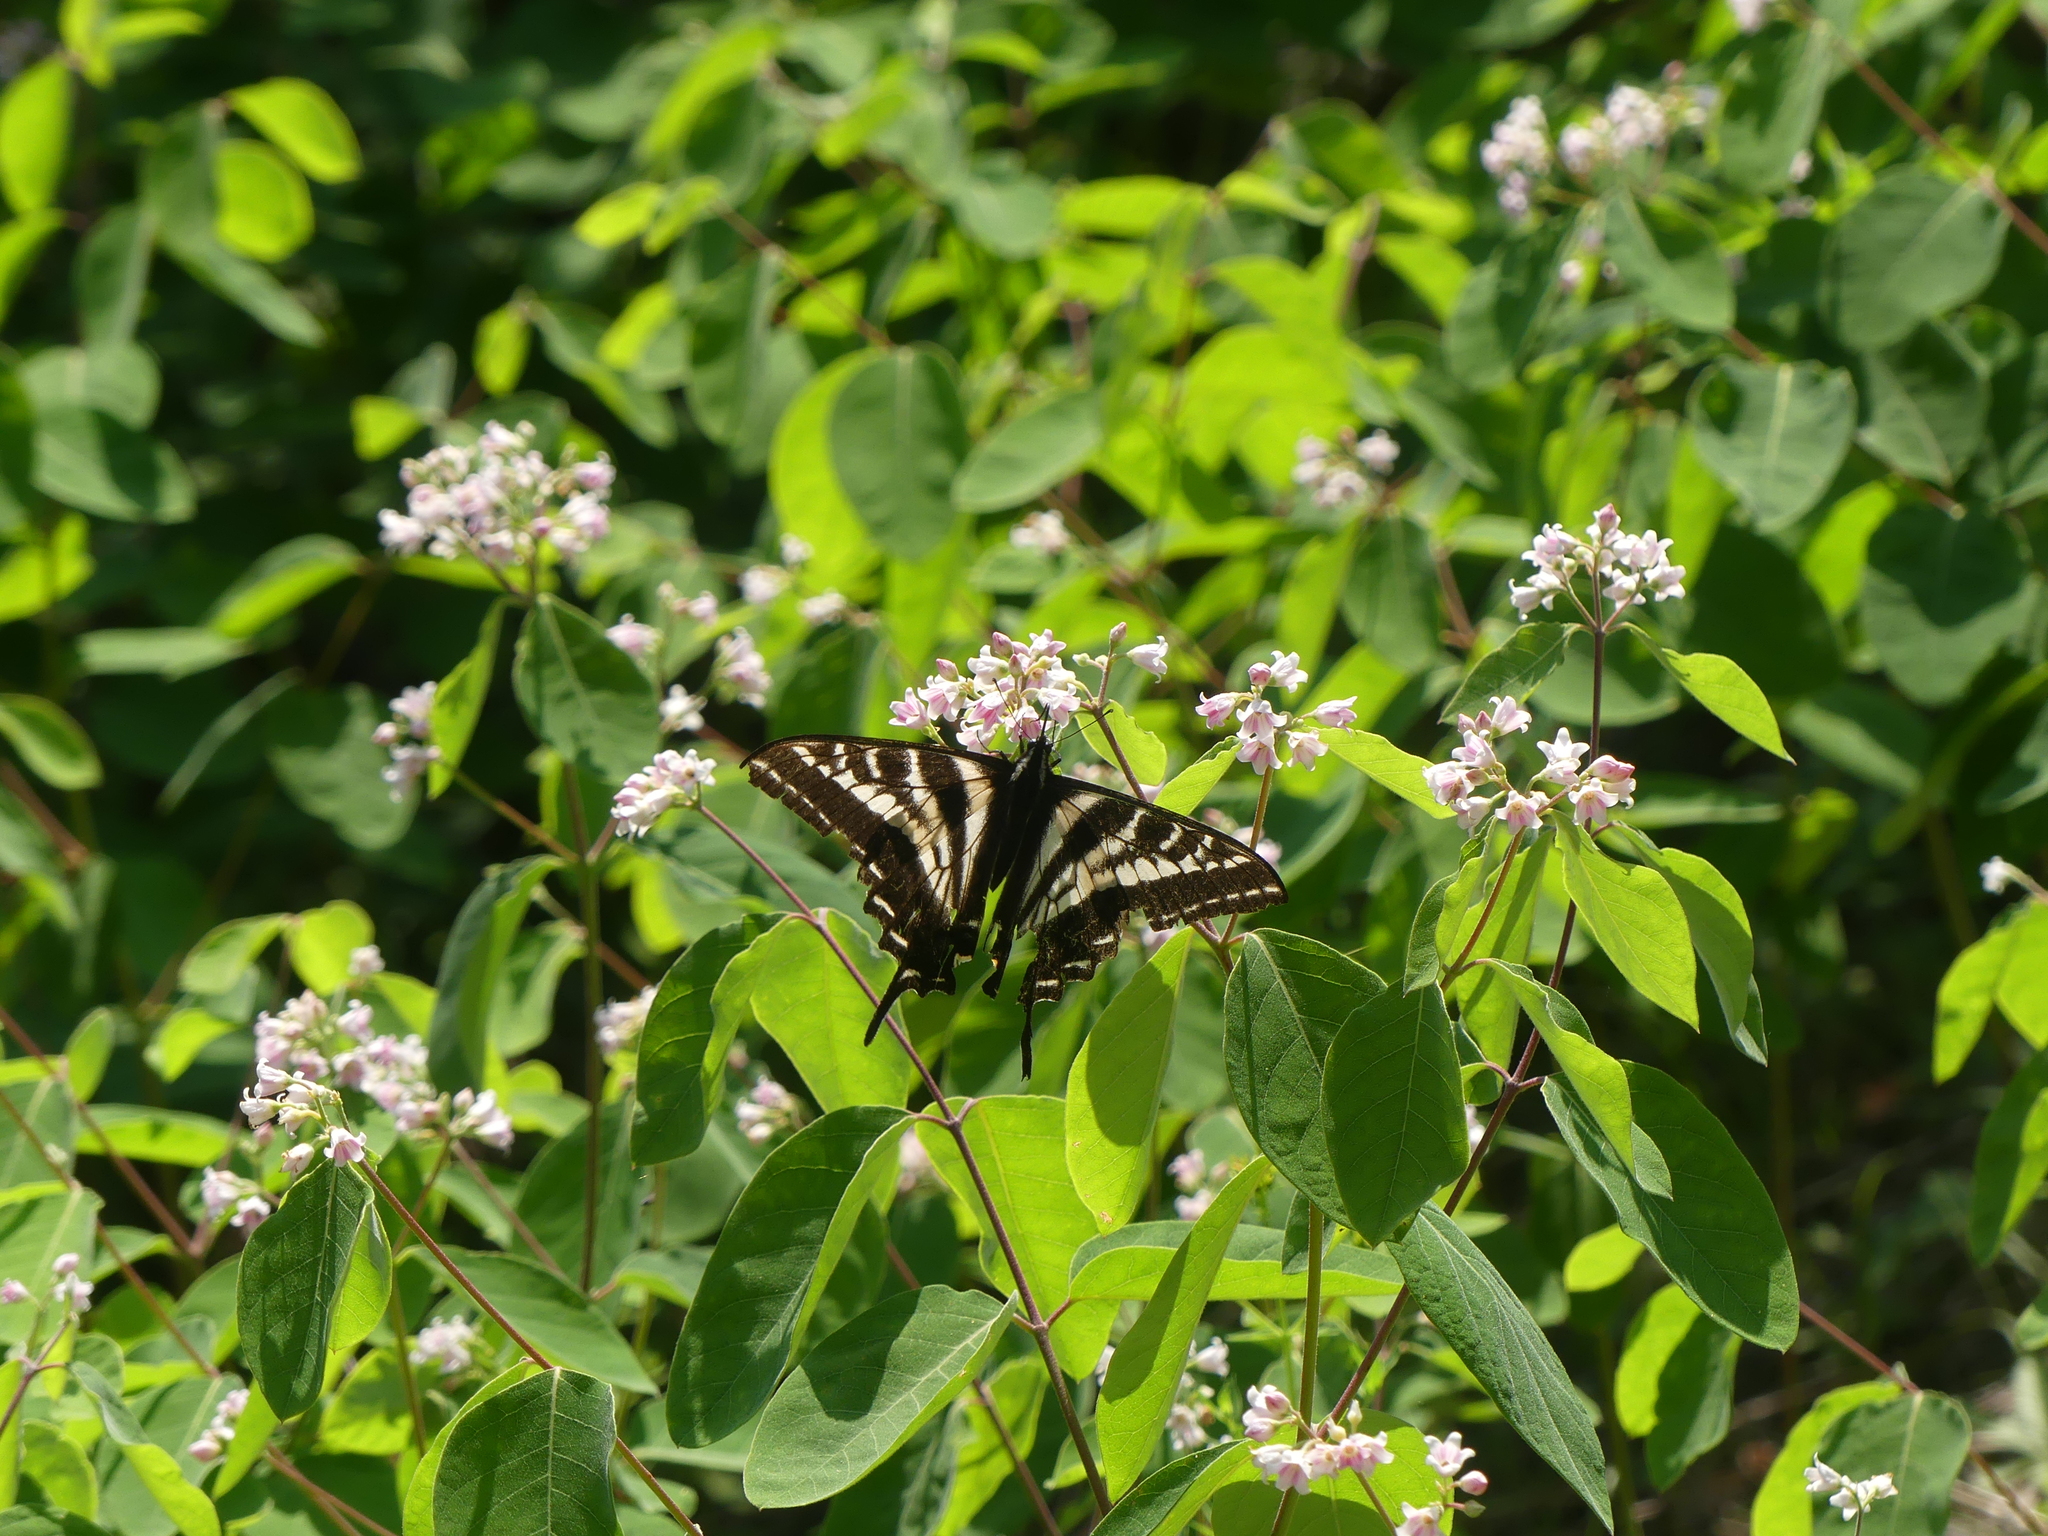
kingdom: Animalia
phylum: Arthropoda
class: Insecta
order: Lepidoptera
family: Papilionidae
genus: Papilio
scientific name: Papilio eurymedon
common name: Pale tiger swallowtail
